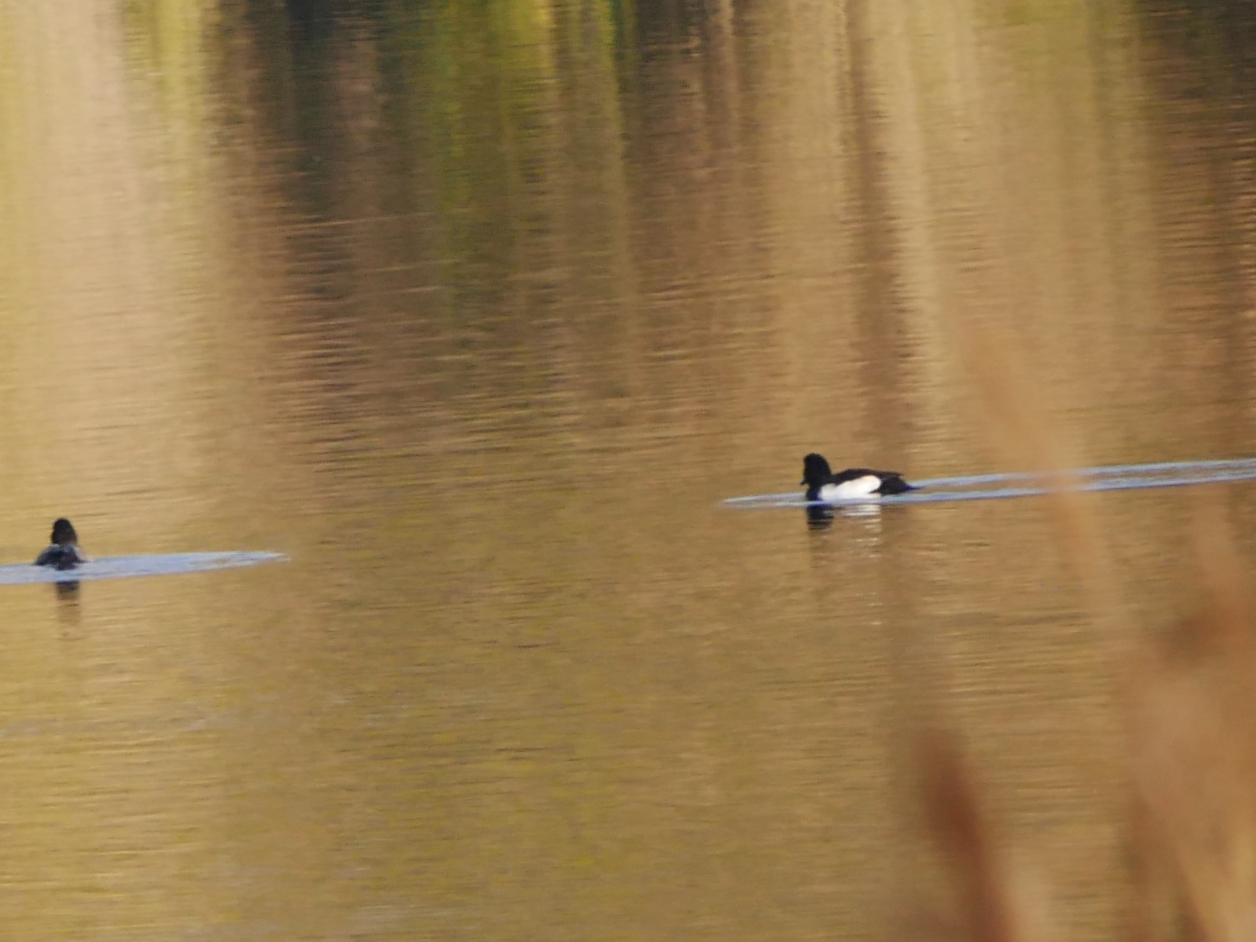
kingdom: Animalia
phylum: Chordata
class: Aves
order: Anseriformes
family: Anatidae
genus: Aythya
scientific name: Aythya fuligula
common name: Tufted duck
